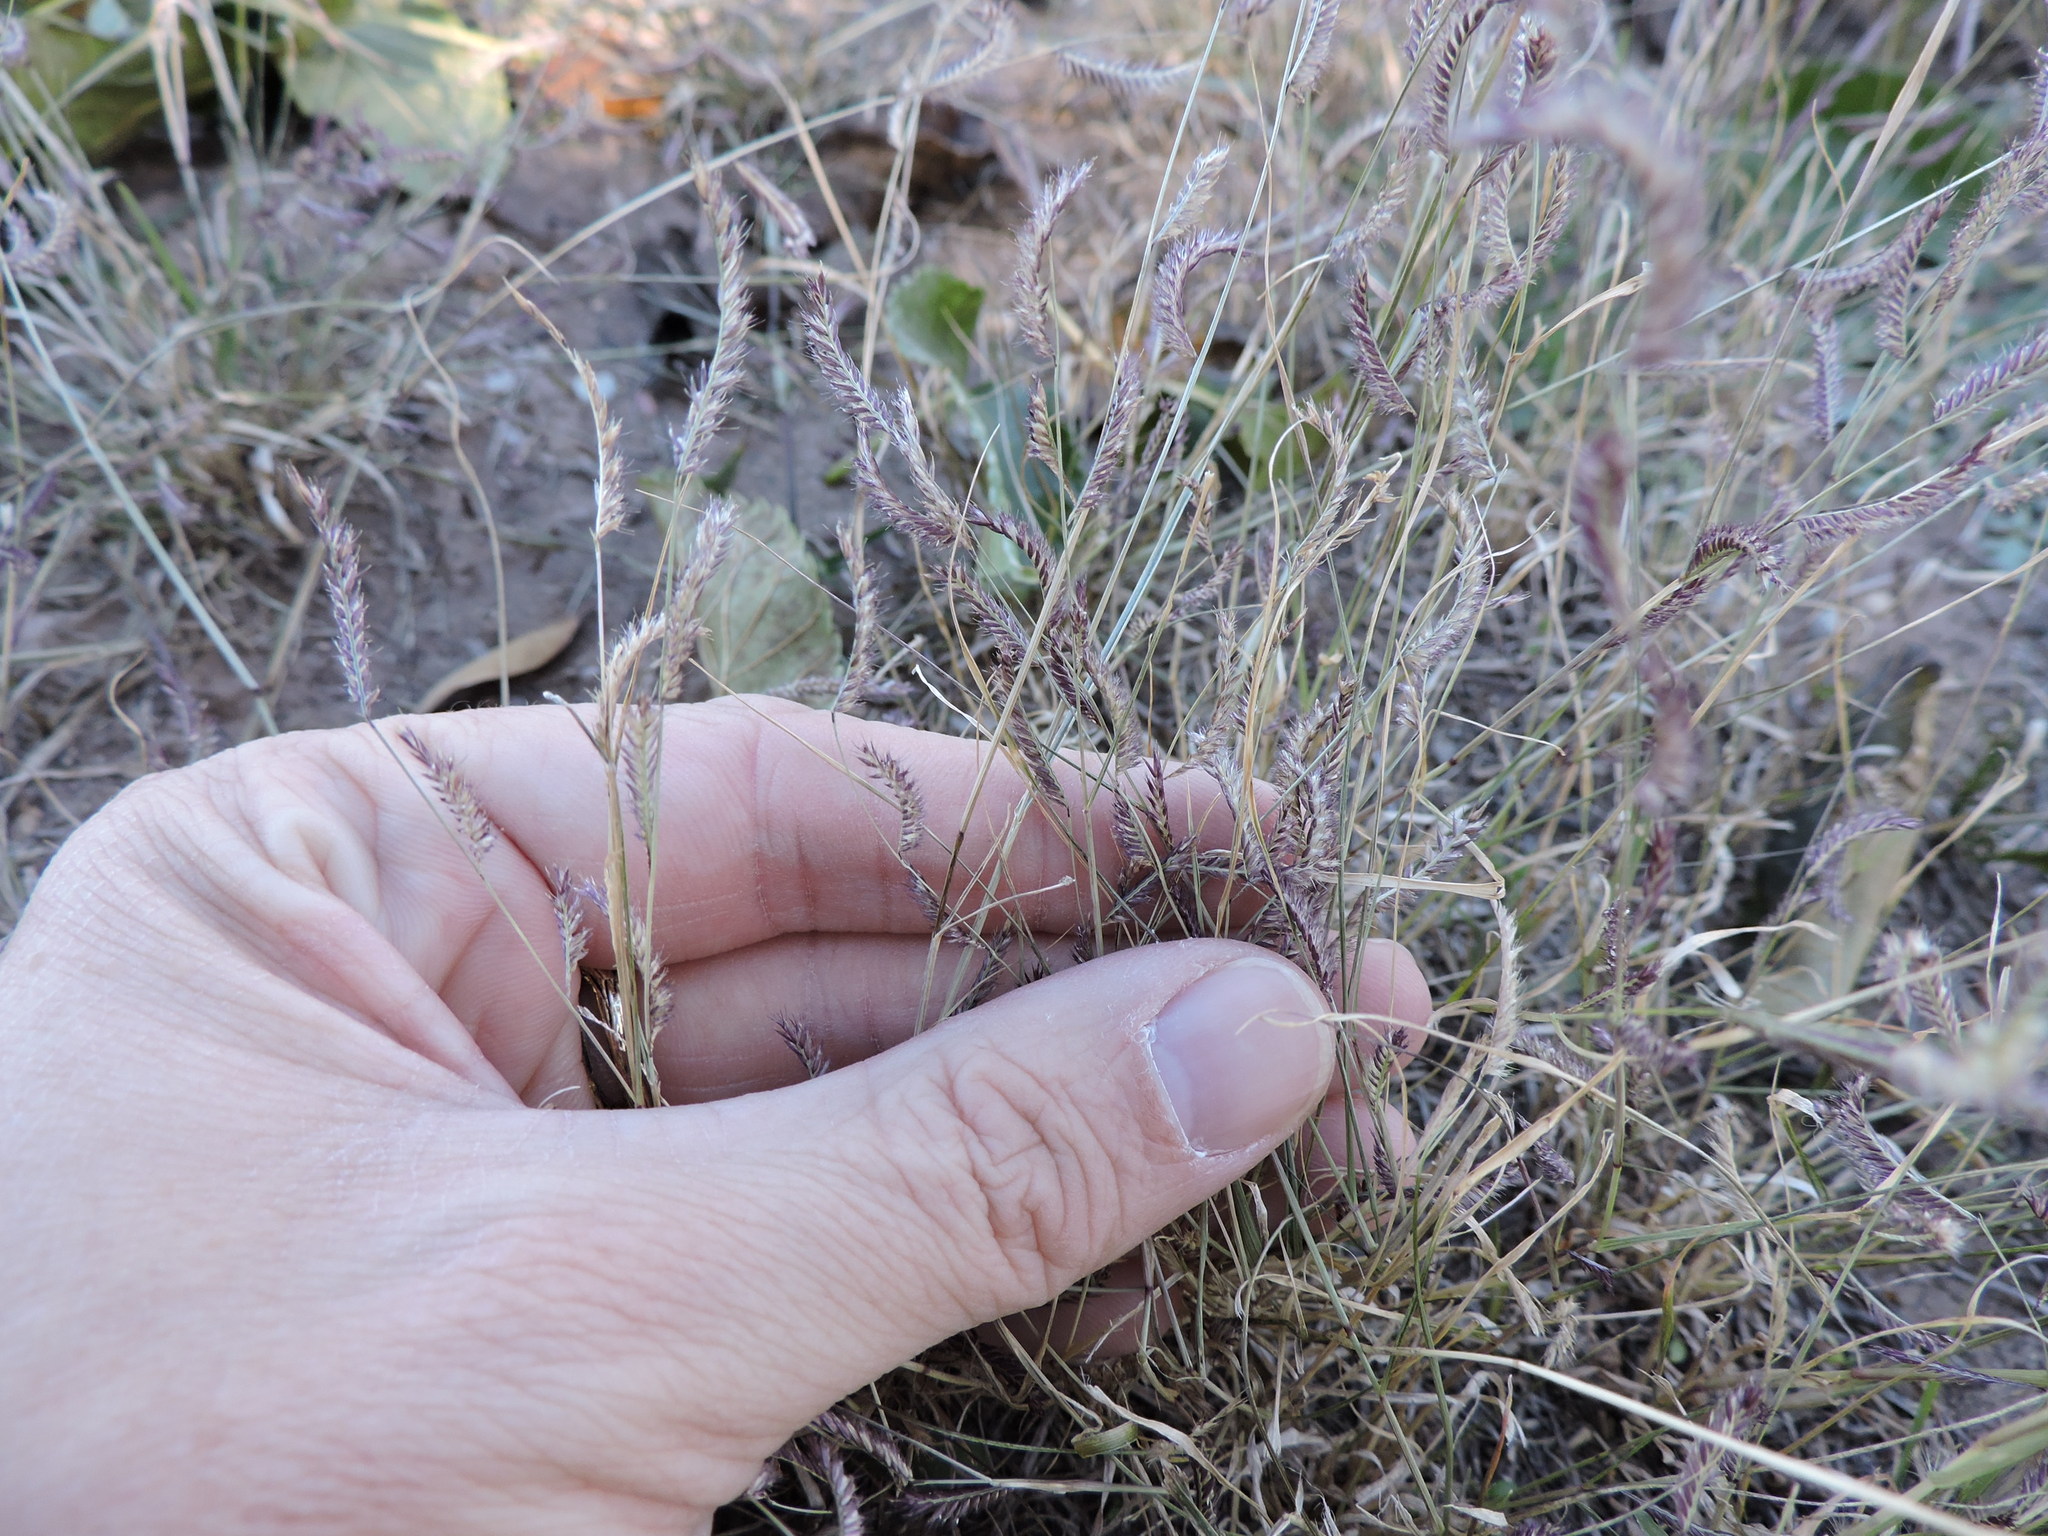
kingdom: Plantae
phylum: Tracheophyta
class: Liliopsida
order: Poales
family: Poaceae
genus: Bouteloua
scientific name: Bouteloua barbata
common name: Six-weeks grama
